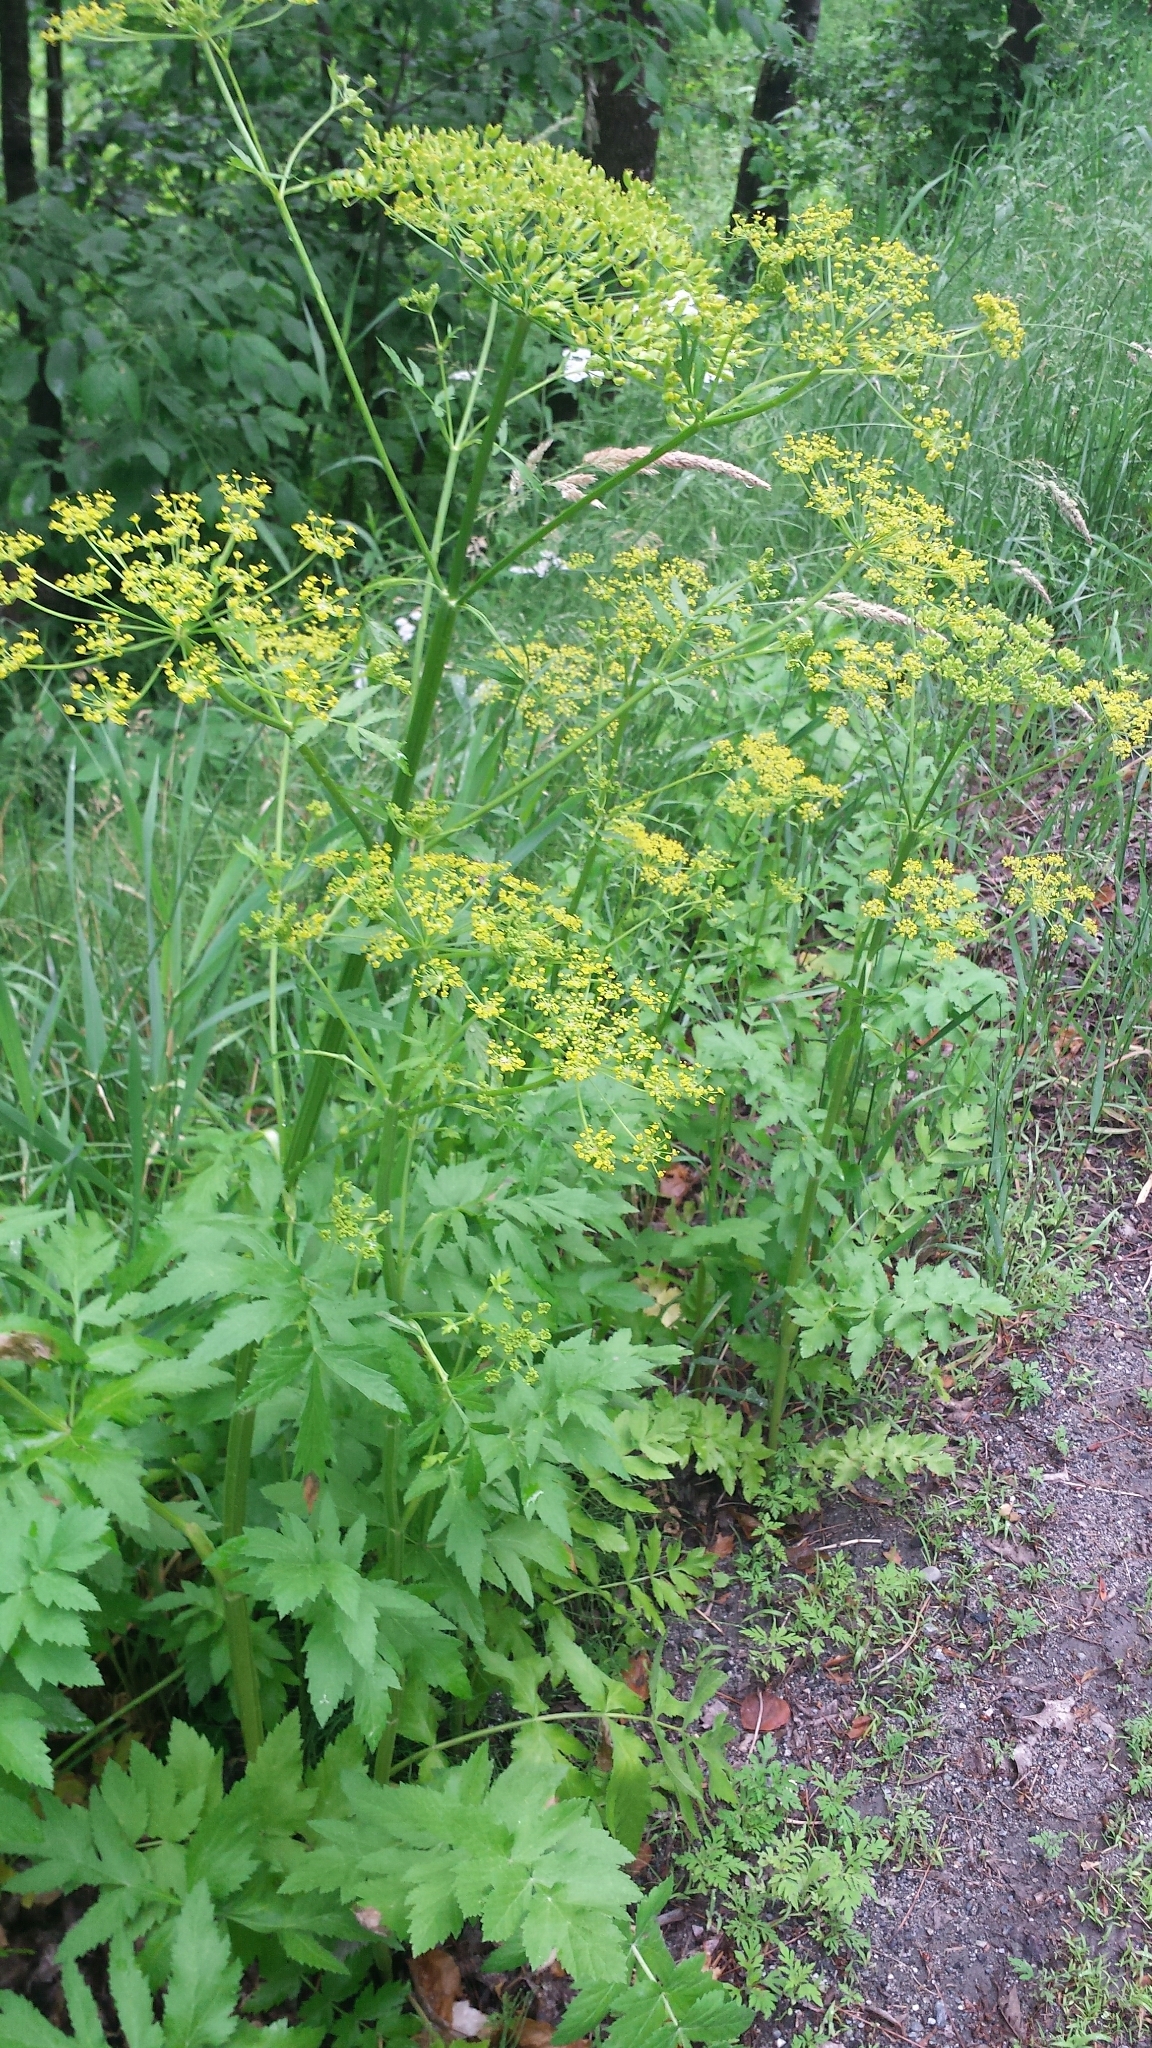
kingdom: Plantae
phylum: Tracheophyta
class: Magnoliopsida
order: Apiales
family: Apiaceae
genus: Pastinaca
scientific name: Pastinaca sativa
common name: Wild parsnip
